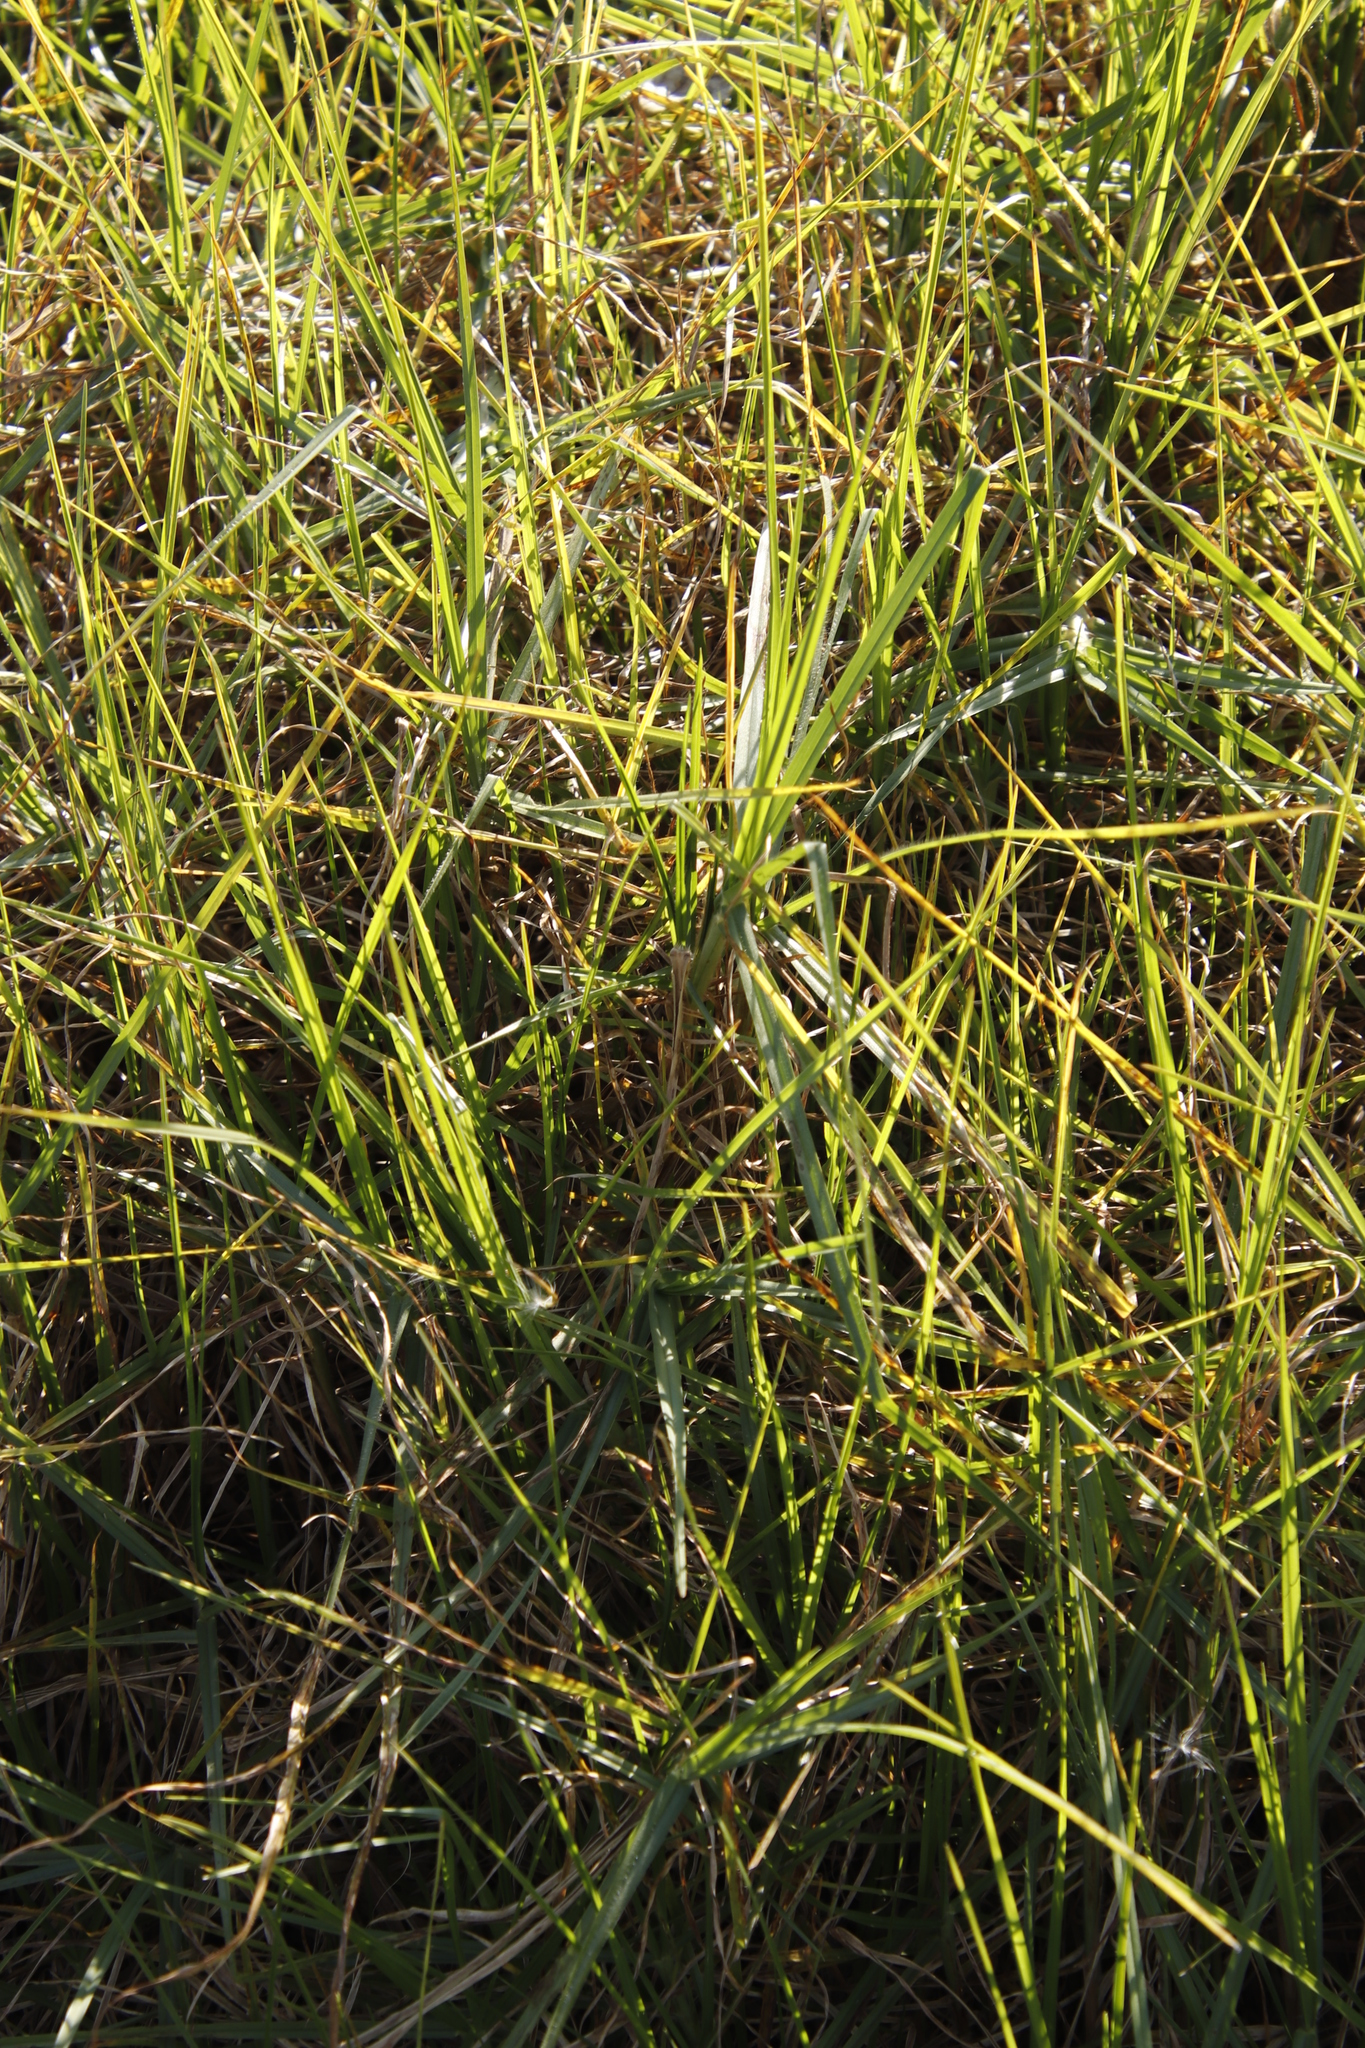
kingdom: Plantae
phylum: Tracheophyta
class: Liliopsida
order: Poales
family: Poaceae
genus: Cenchrus
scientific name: Cenchrus clandestinus
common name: Kikuyugrass
